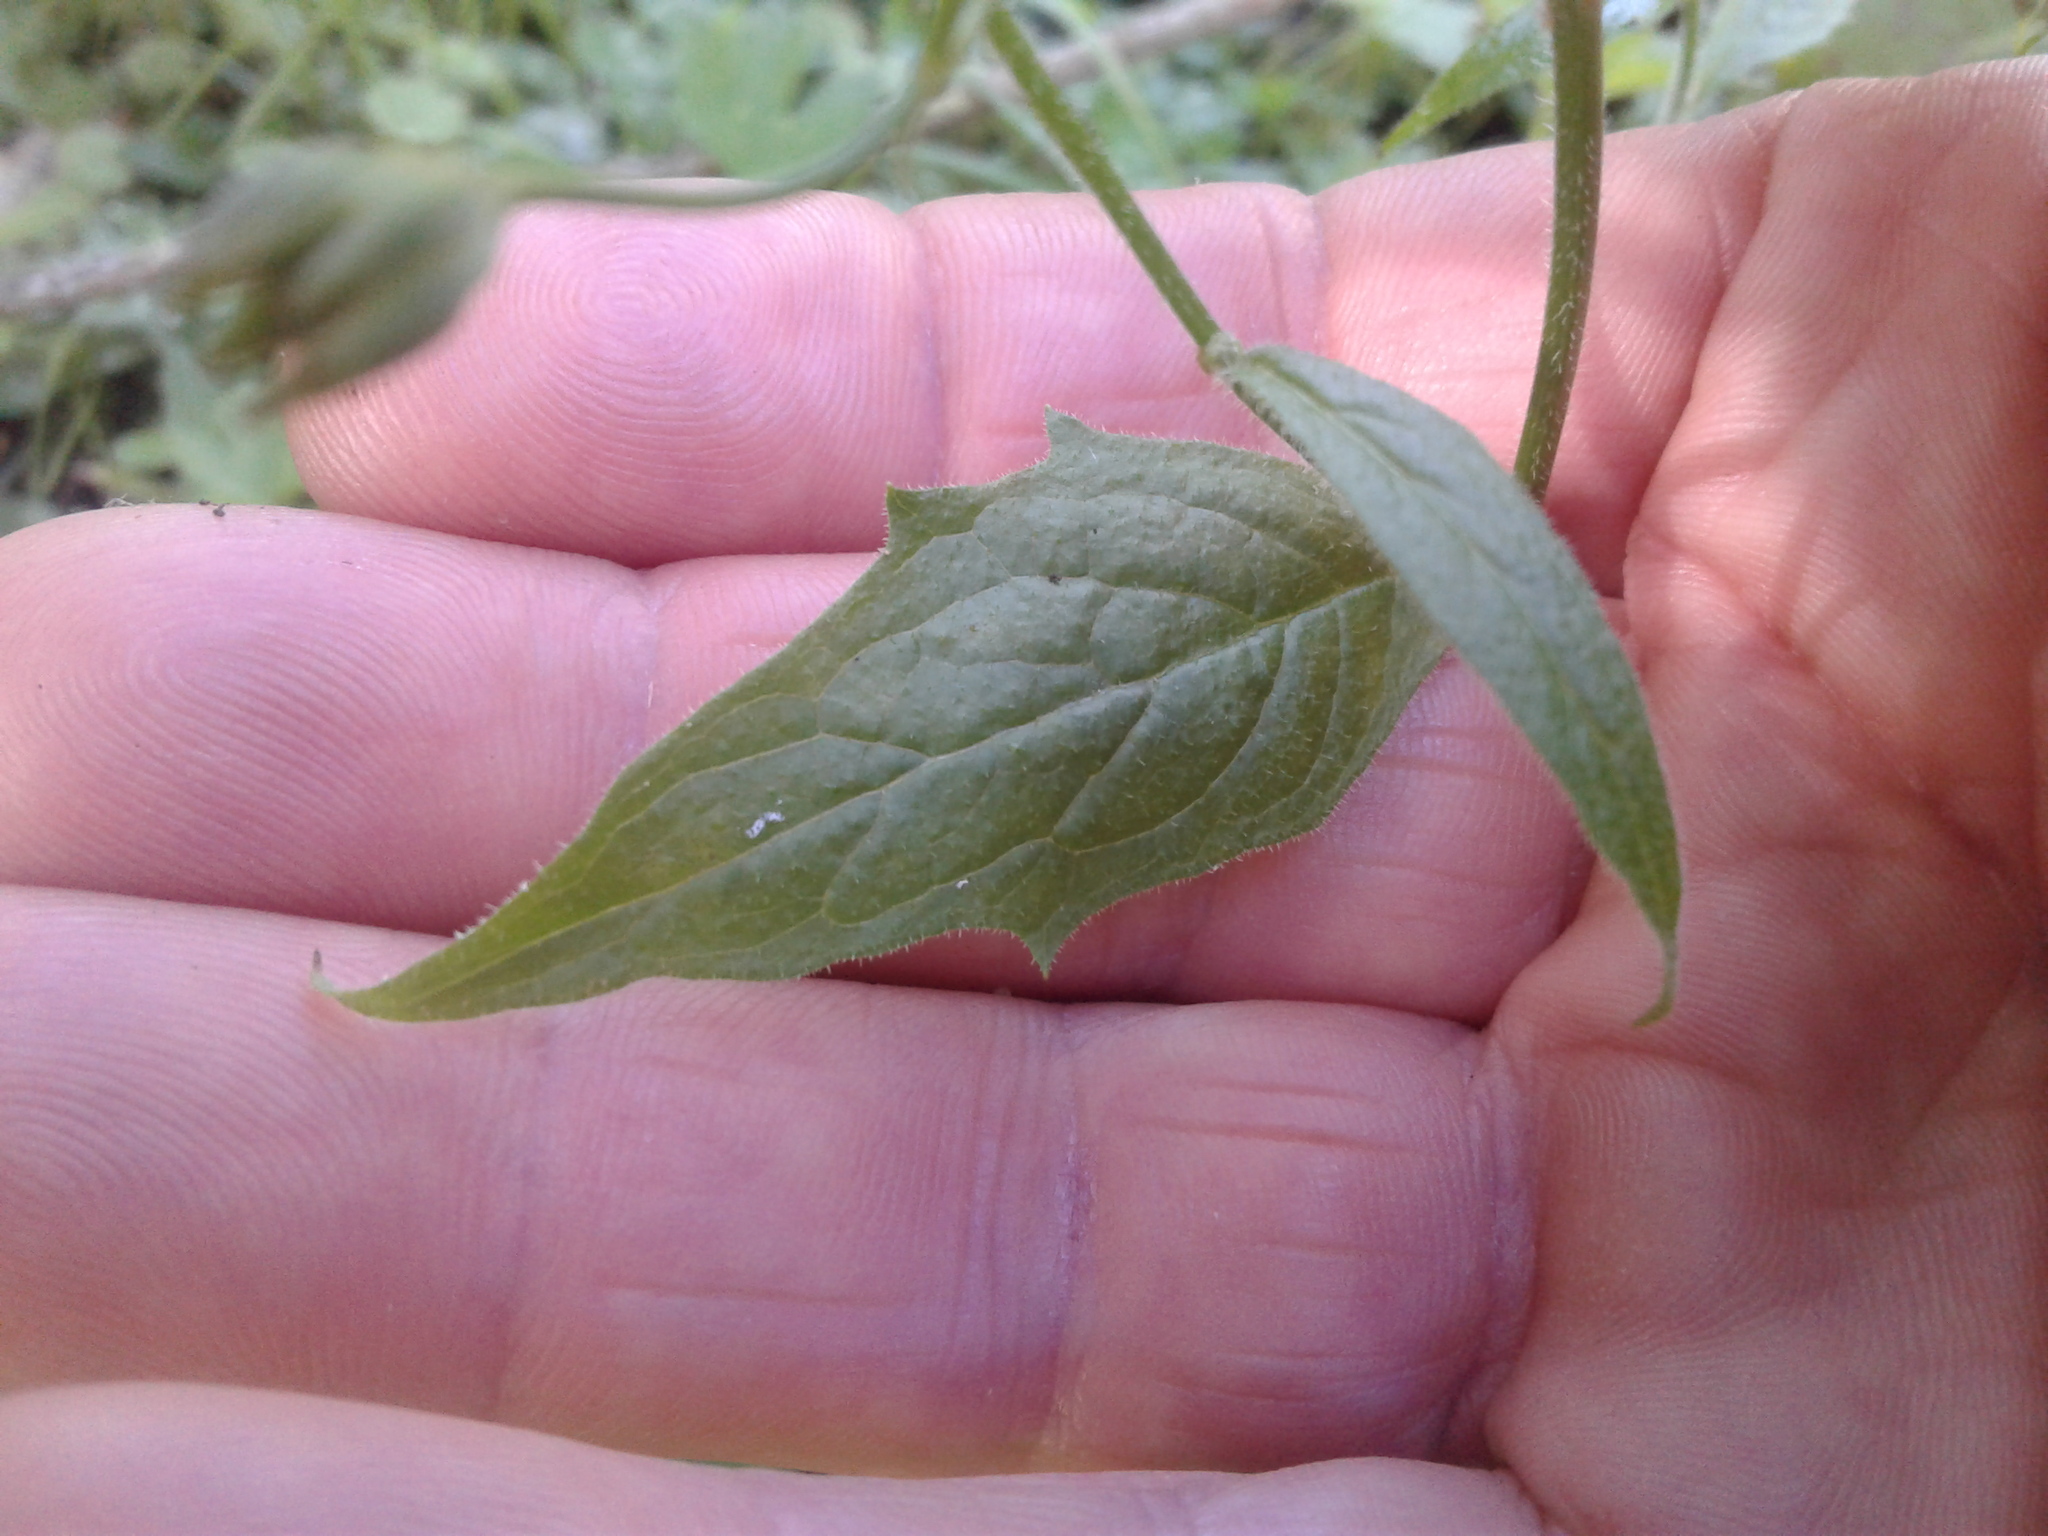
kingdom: Plantae
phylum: Tracheophyta
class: Magnoliopsida
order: Asterales
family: Asteraceae
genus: Lapsana
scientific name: Lapsana communis
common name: Nipplewort
